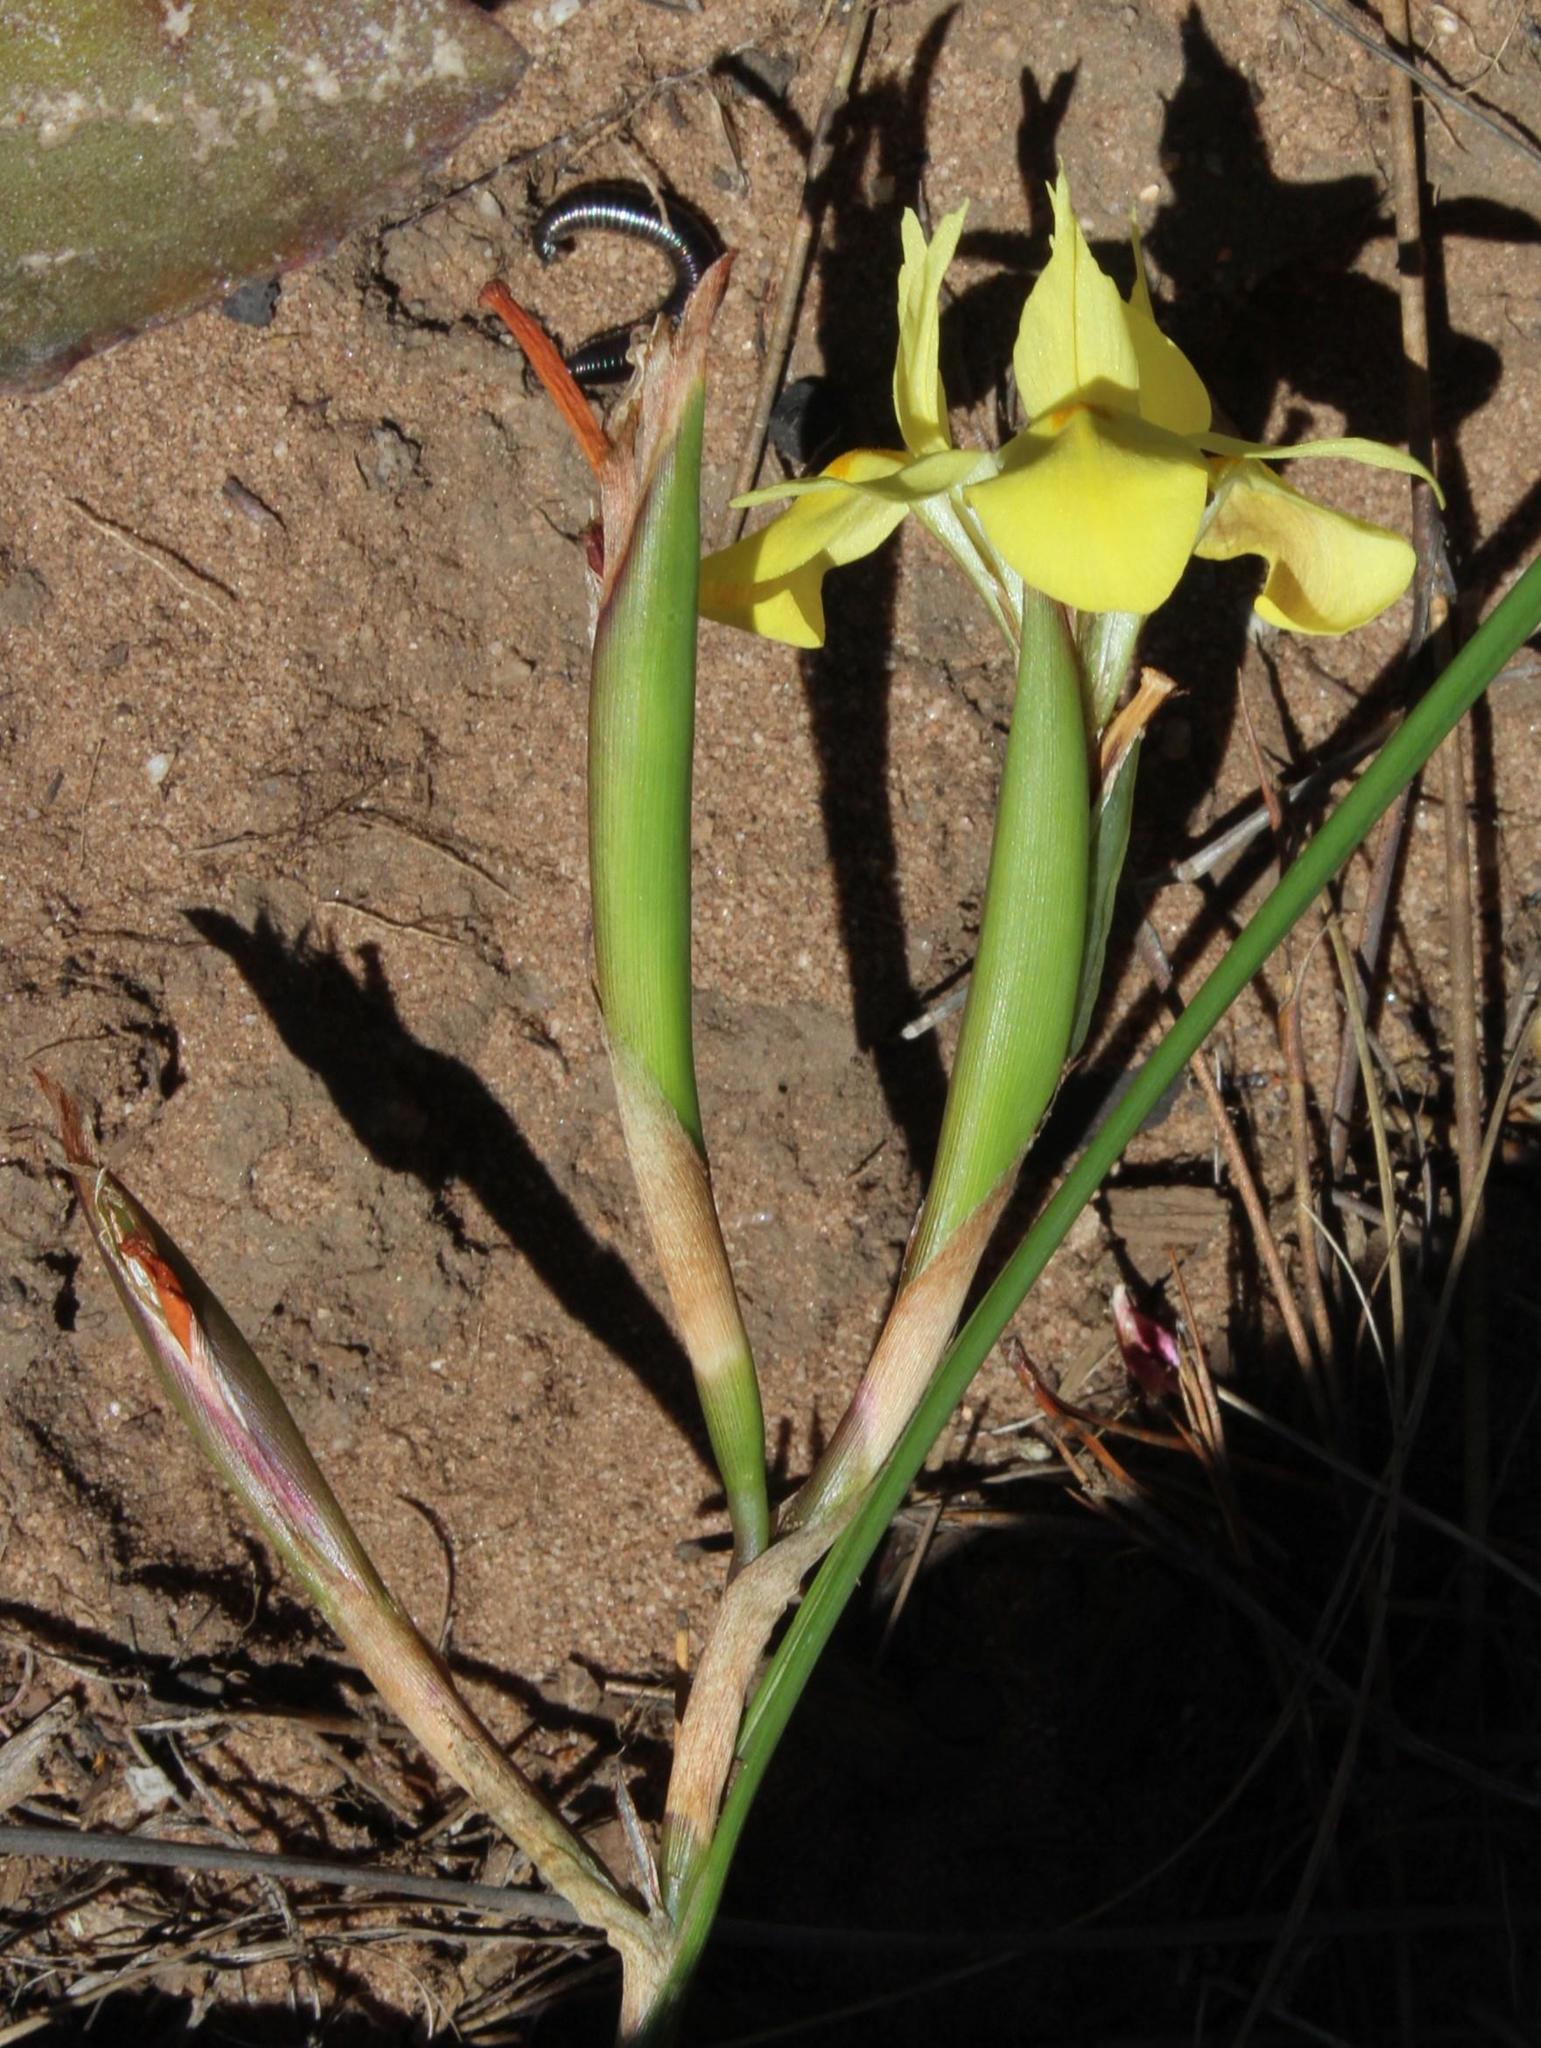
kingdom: Plantae
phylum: Tracheophyta
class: Liliopsida
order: Asparagales
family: Iridaceae
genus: Moraea
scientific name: Moraea fugax
